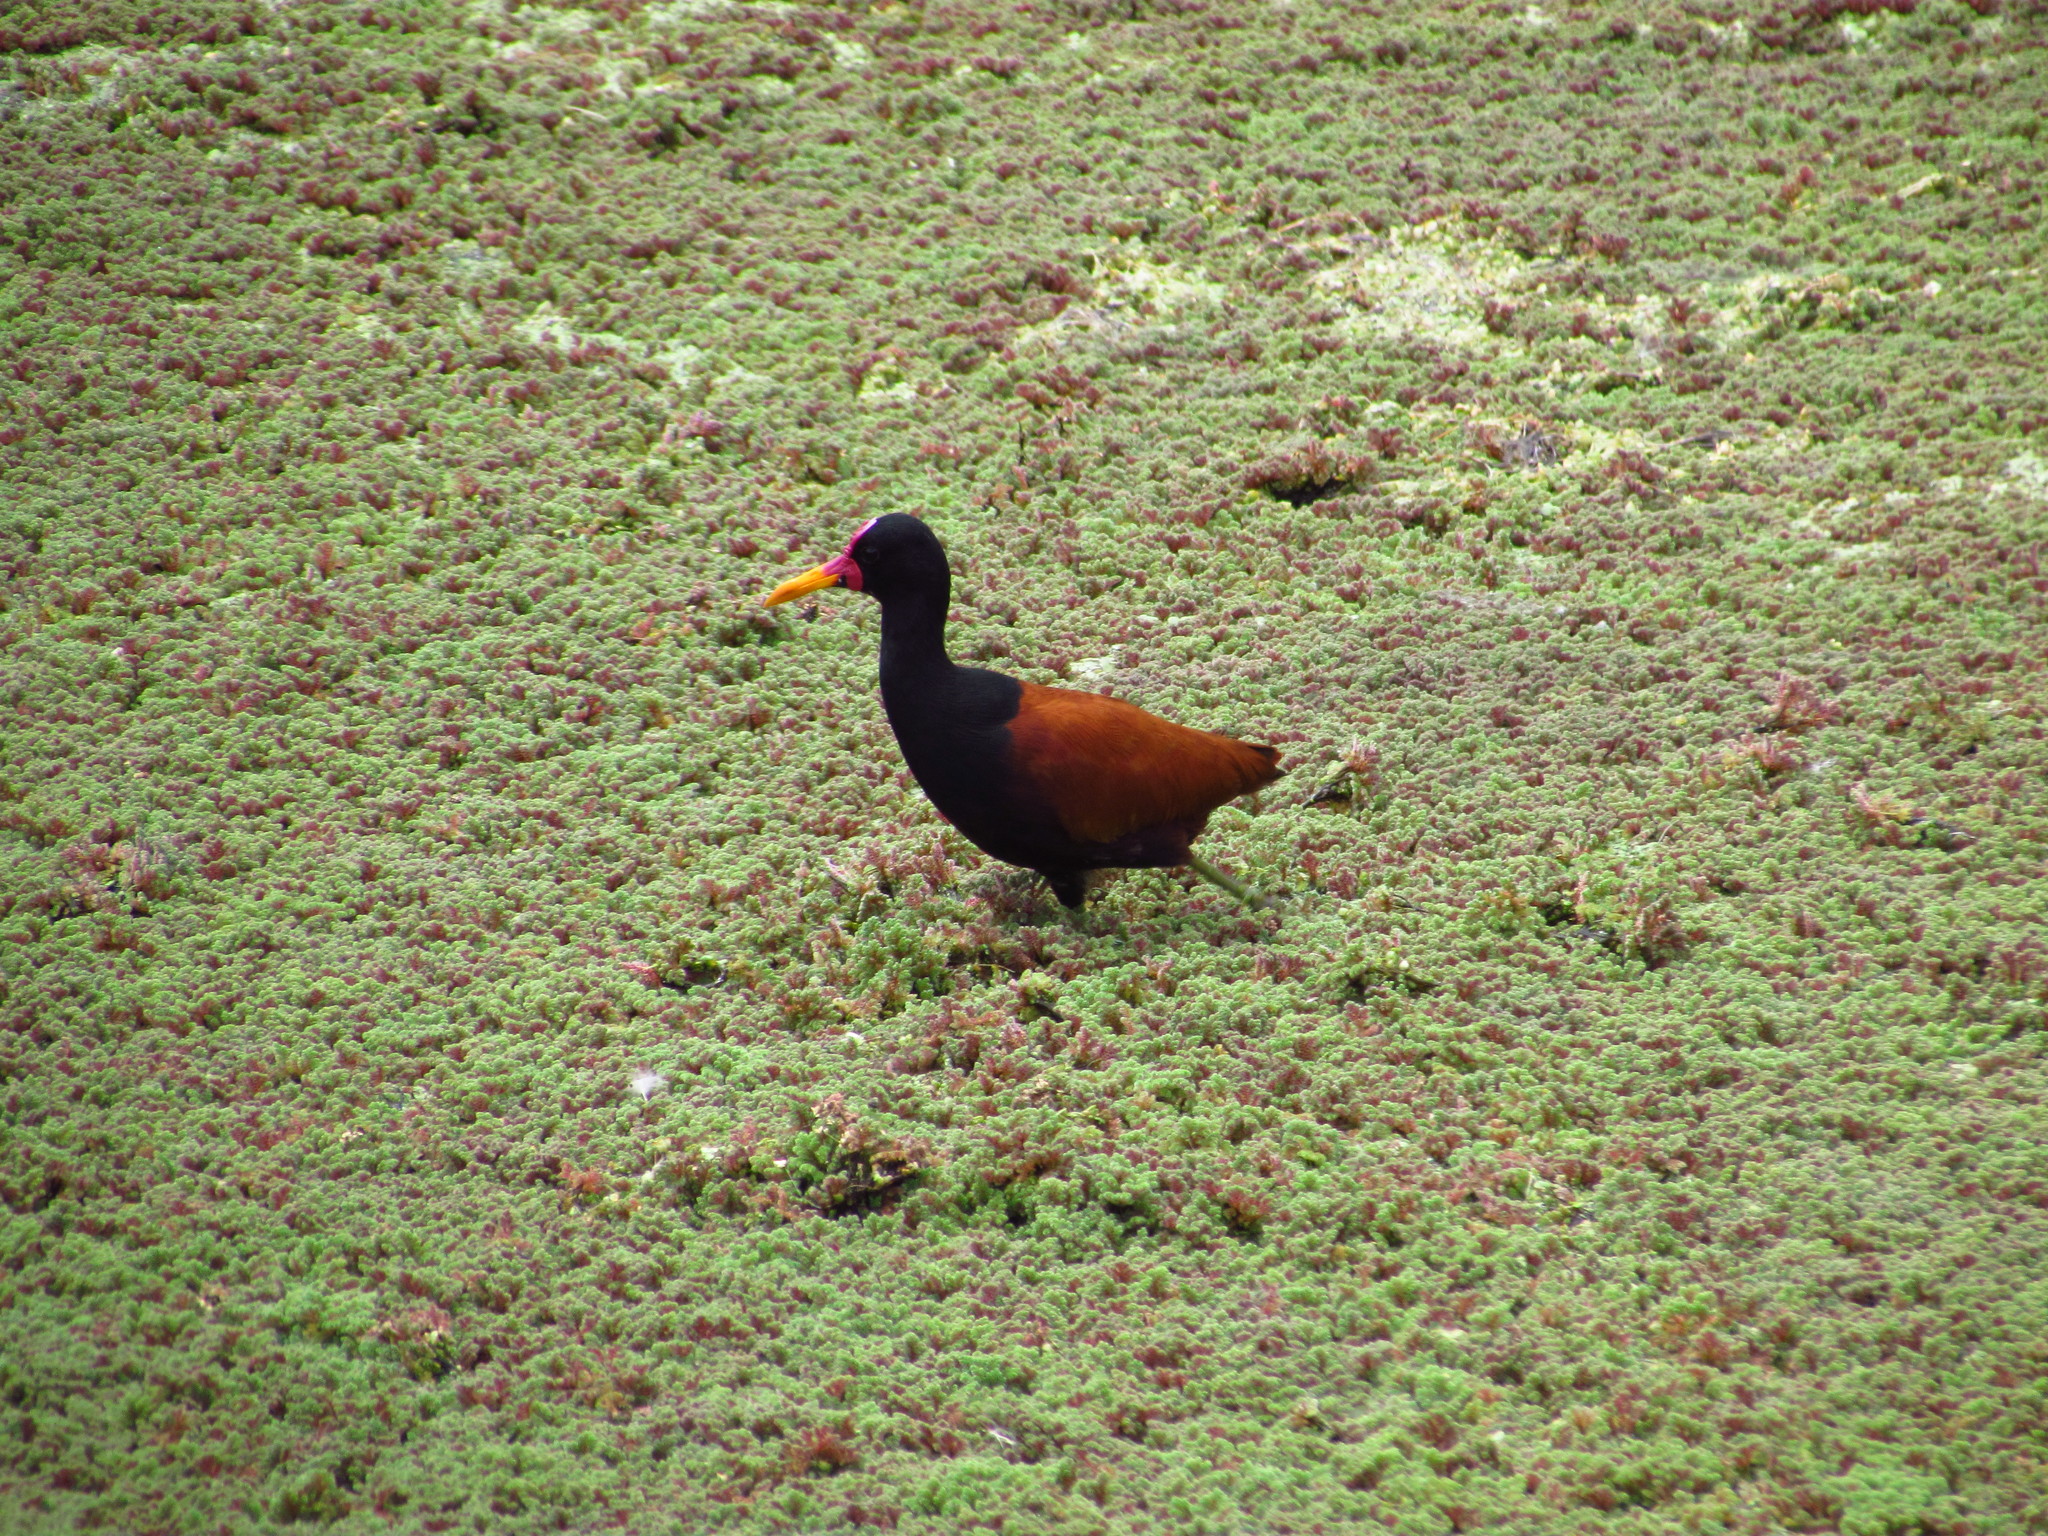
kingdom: Animalia
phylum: Chordata
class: Aves
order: Charadriiformes
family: Jacanidae
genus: Jacana
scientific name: Jacana jacana
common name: Wattled jacana
